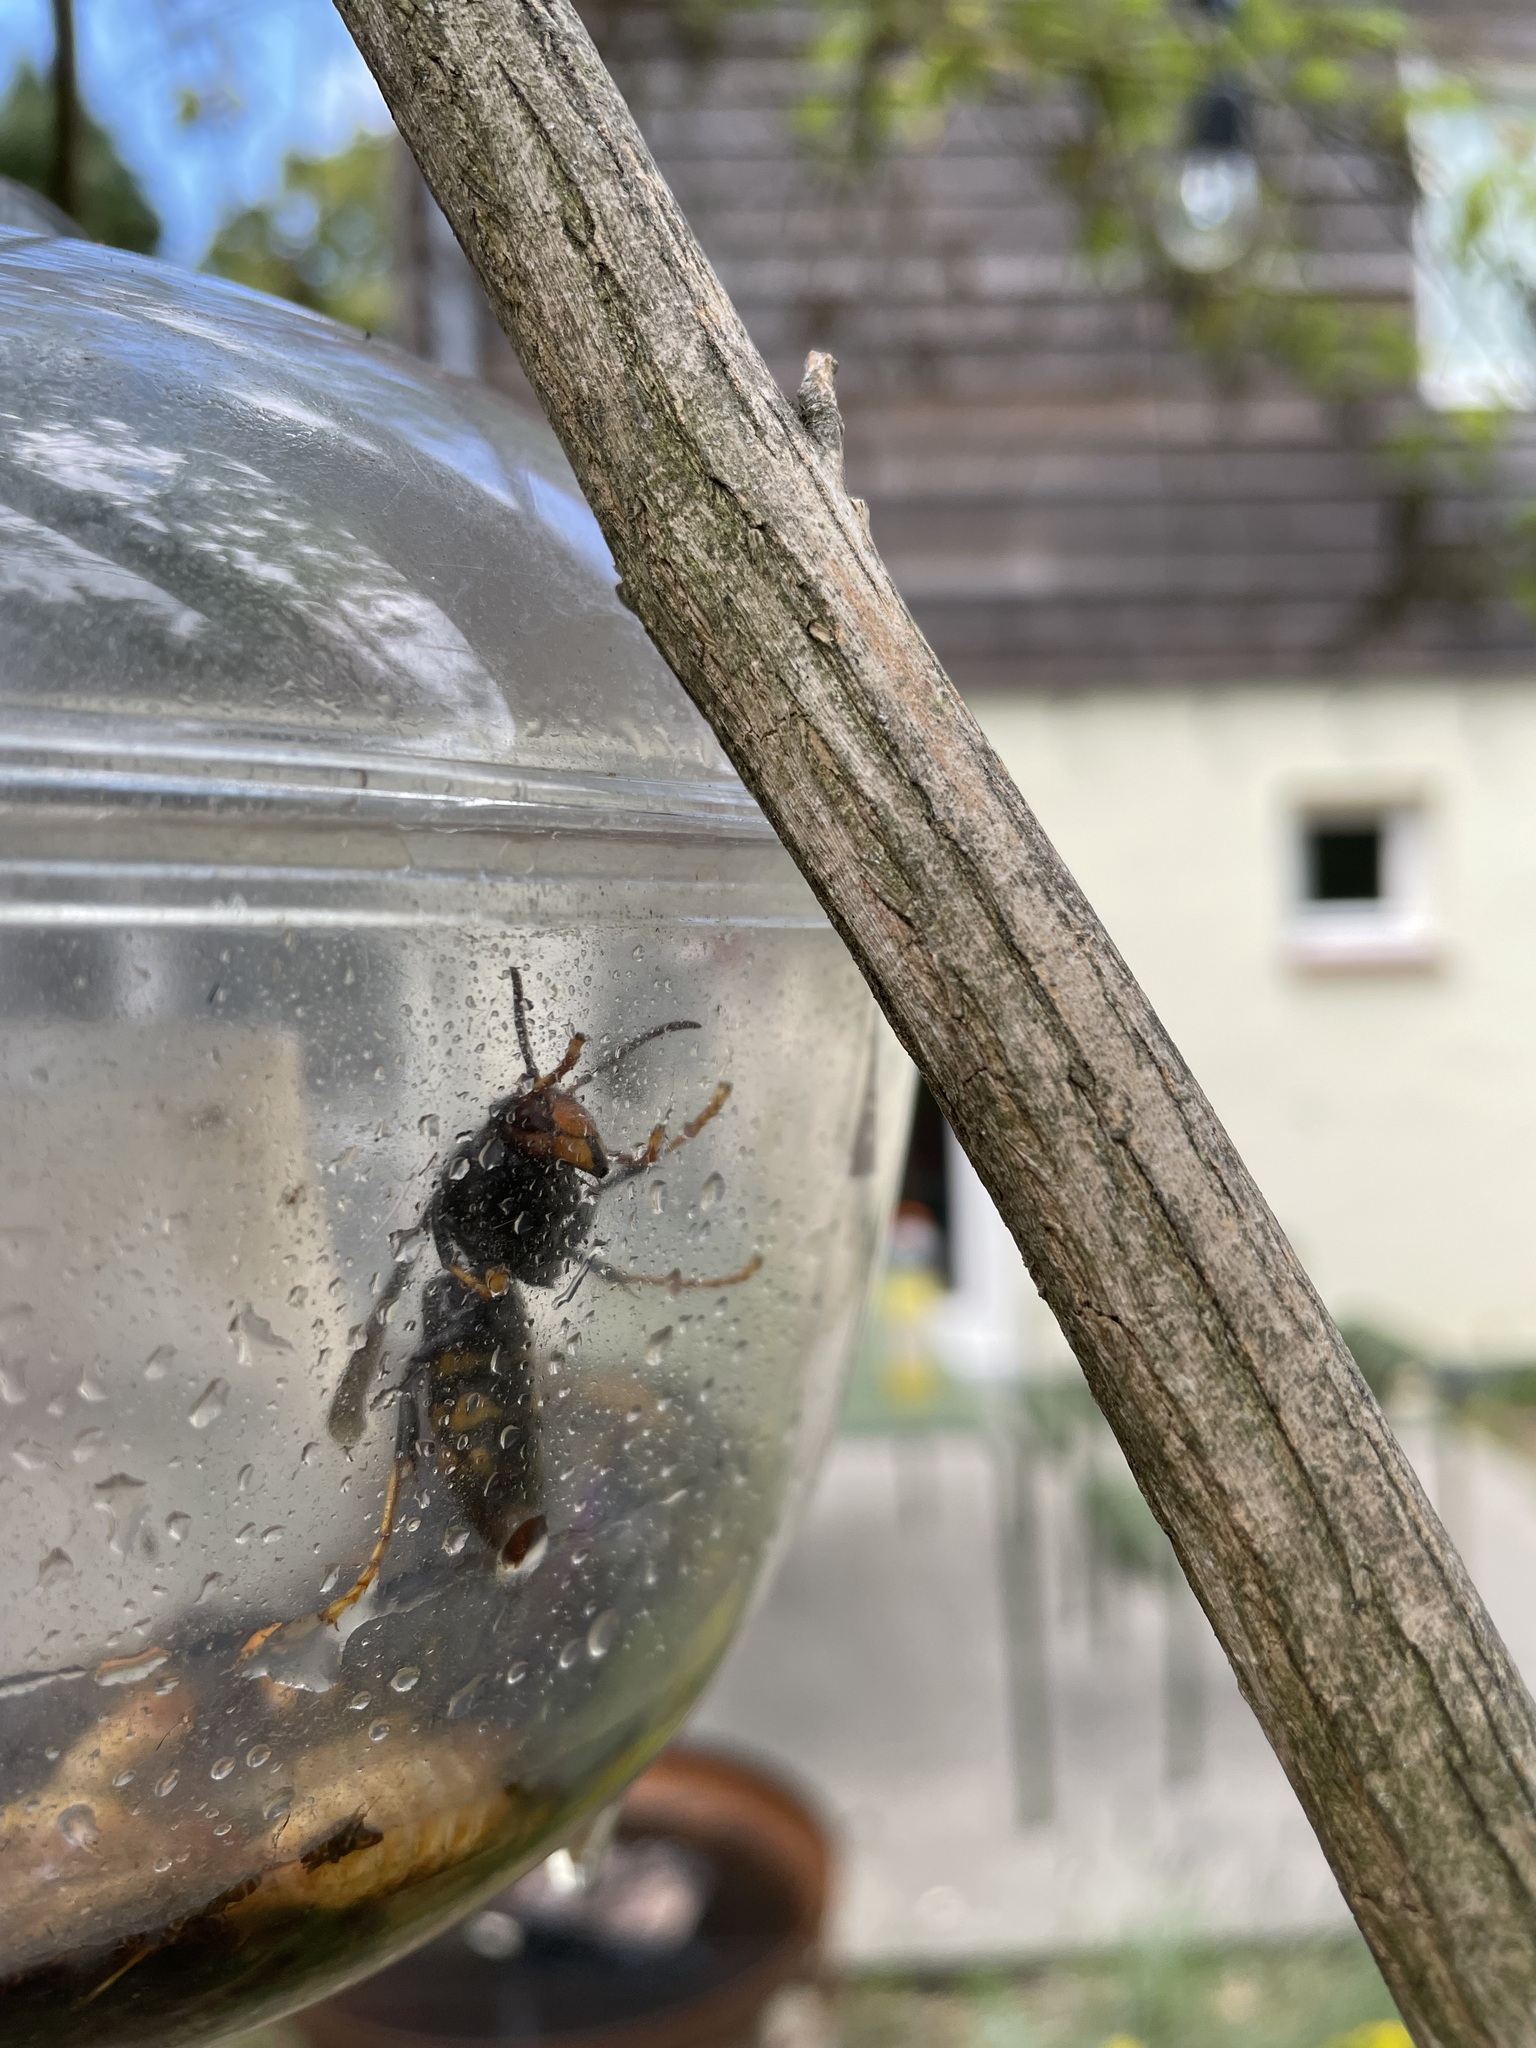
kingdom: Animalia
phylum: Arthropoda
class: Insecta
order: Hymenoptera
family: Vespidae
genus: Vespa
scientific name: Vespa velutina
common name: Asian hornet
